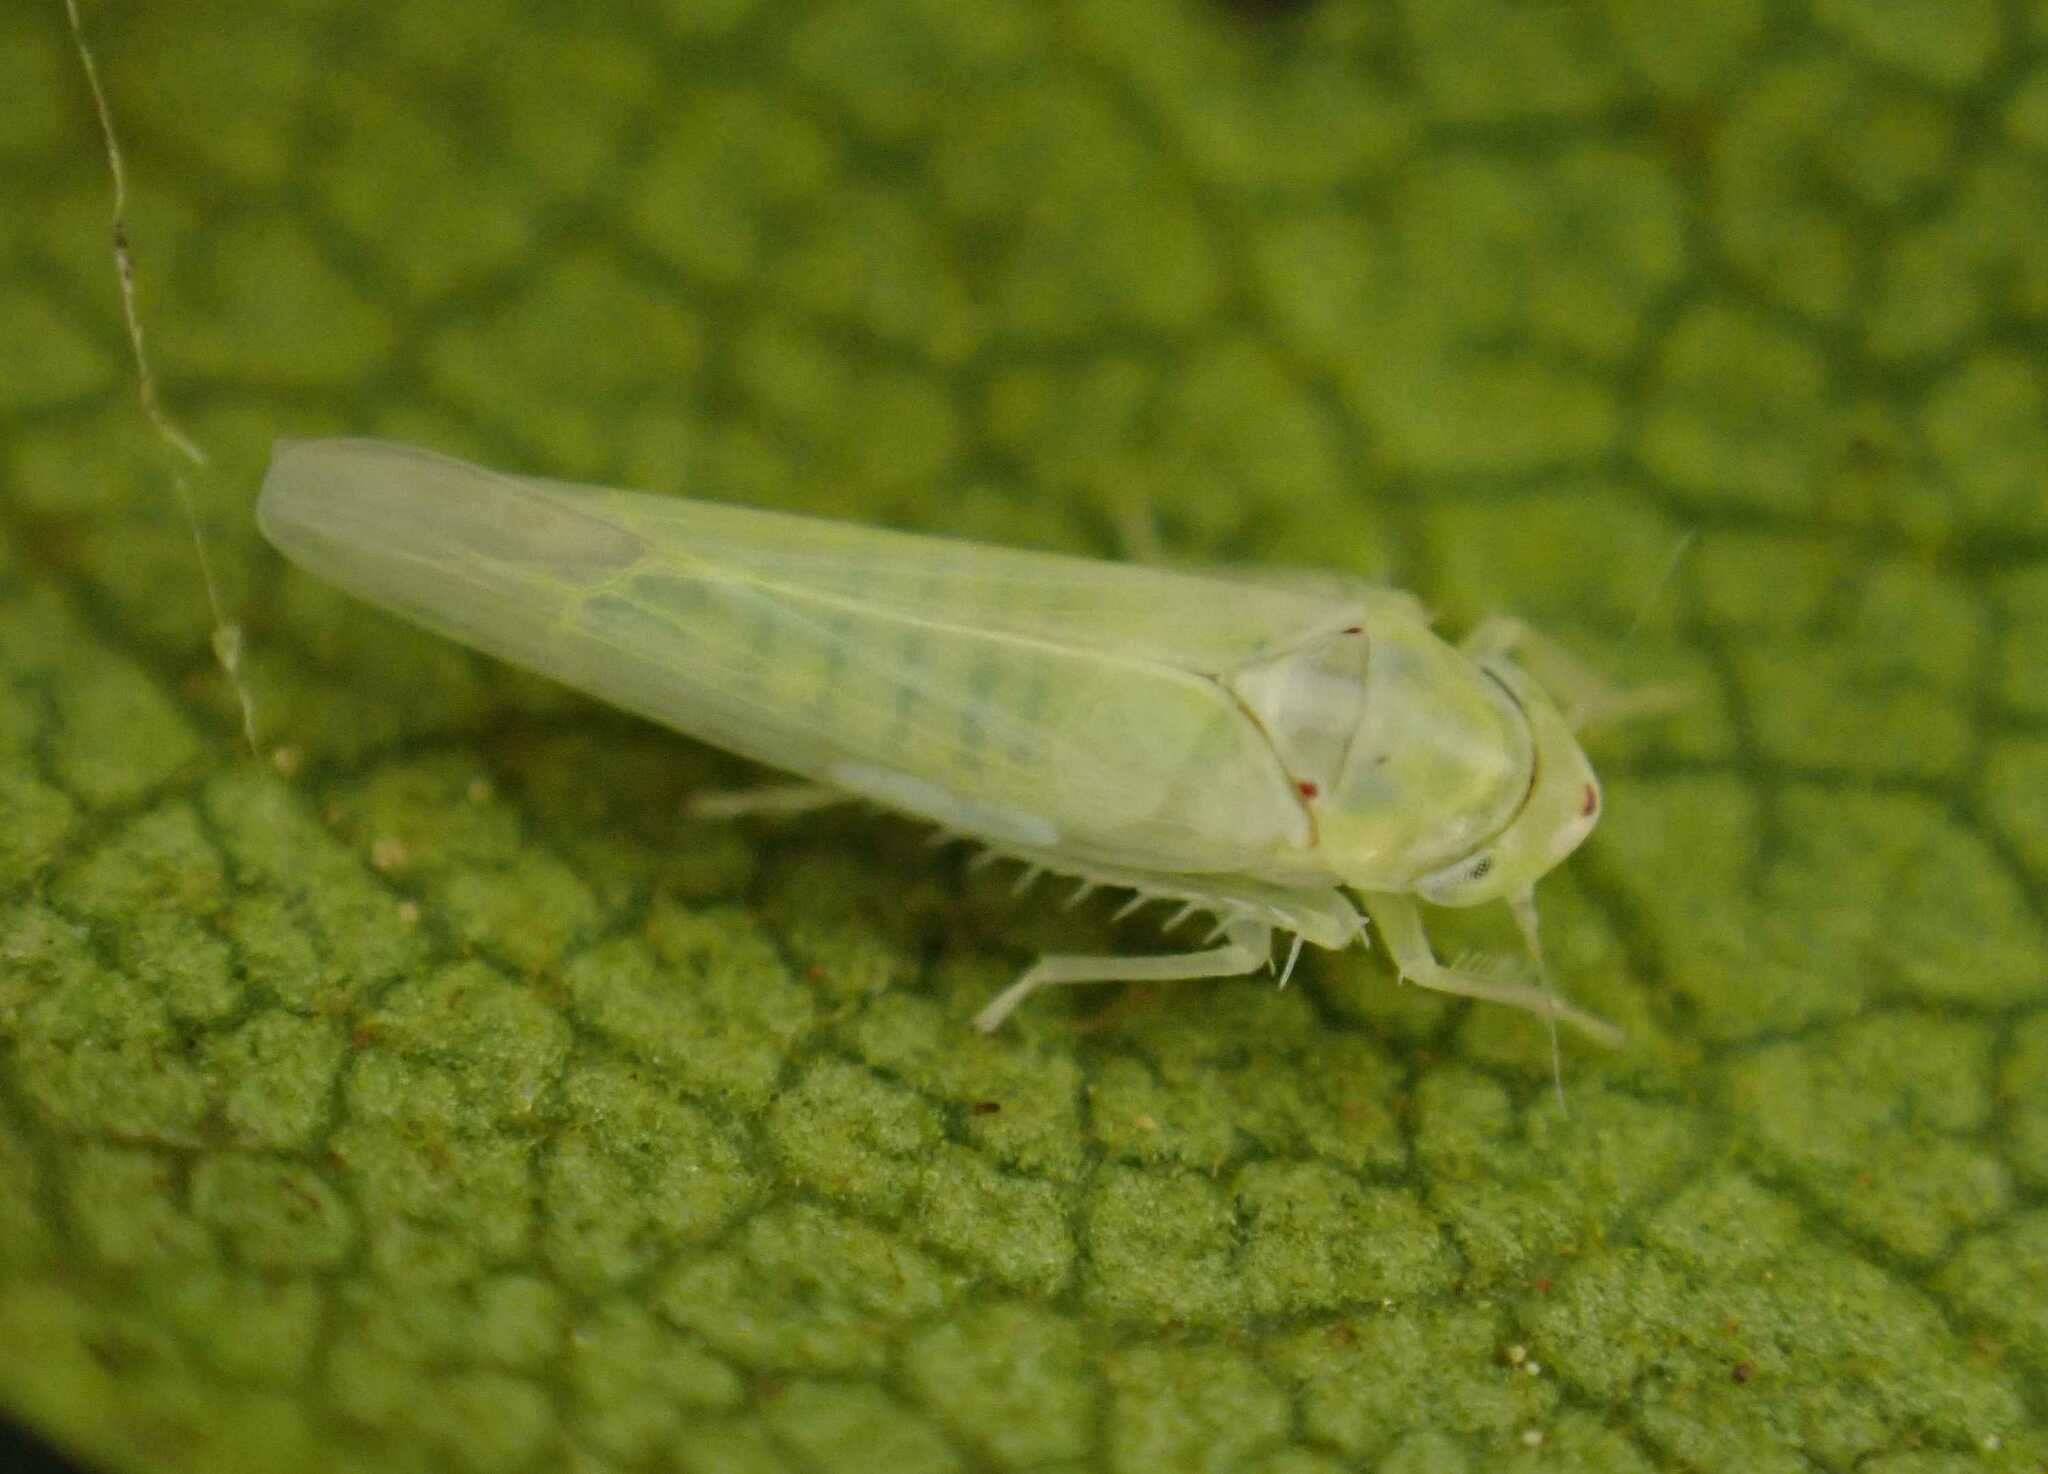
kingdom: Animalia
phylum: Arthropoda
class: Insecta
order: Hemiptera
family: Cicadellidae
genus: Zygina
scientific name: Zygina nivea
